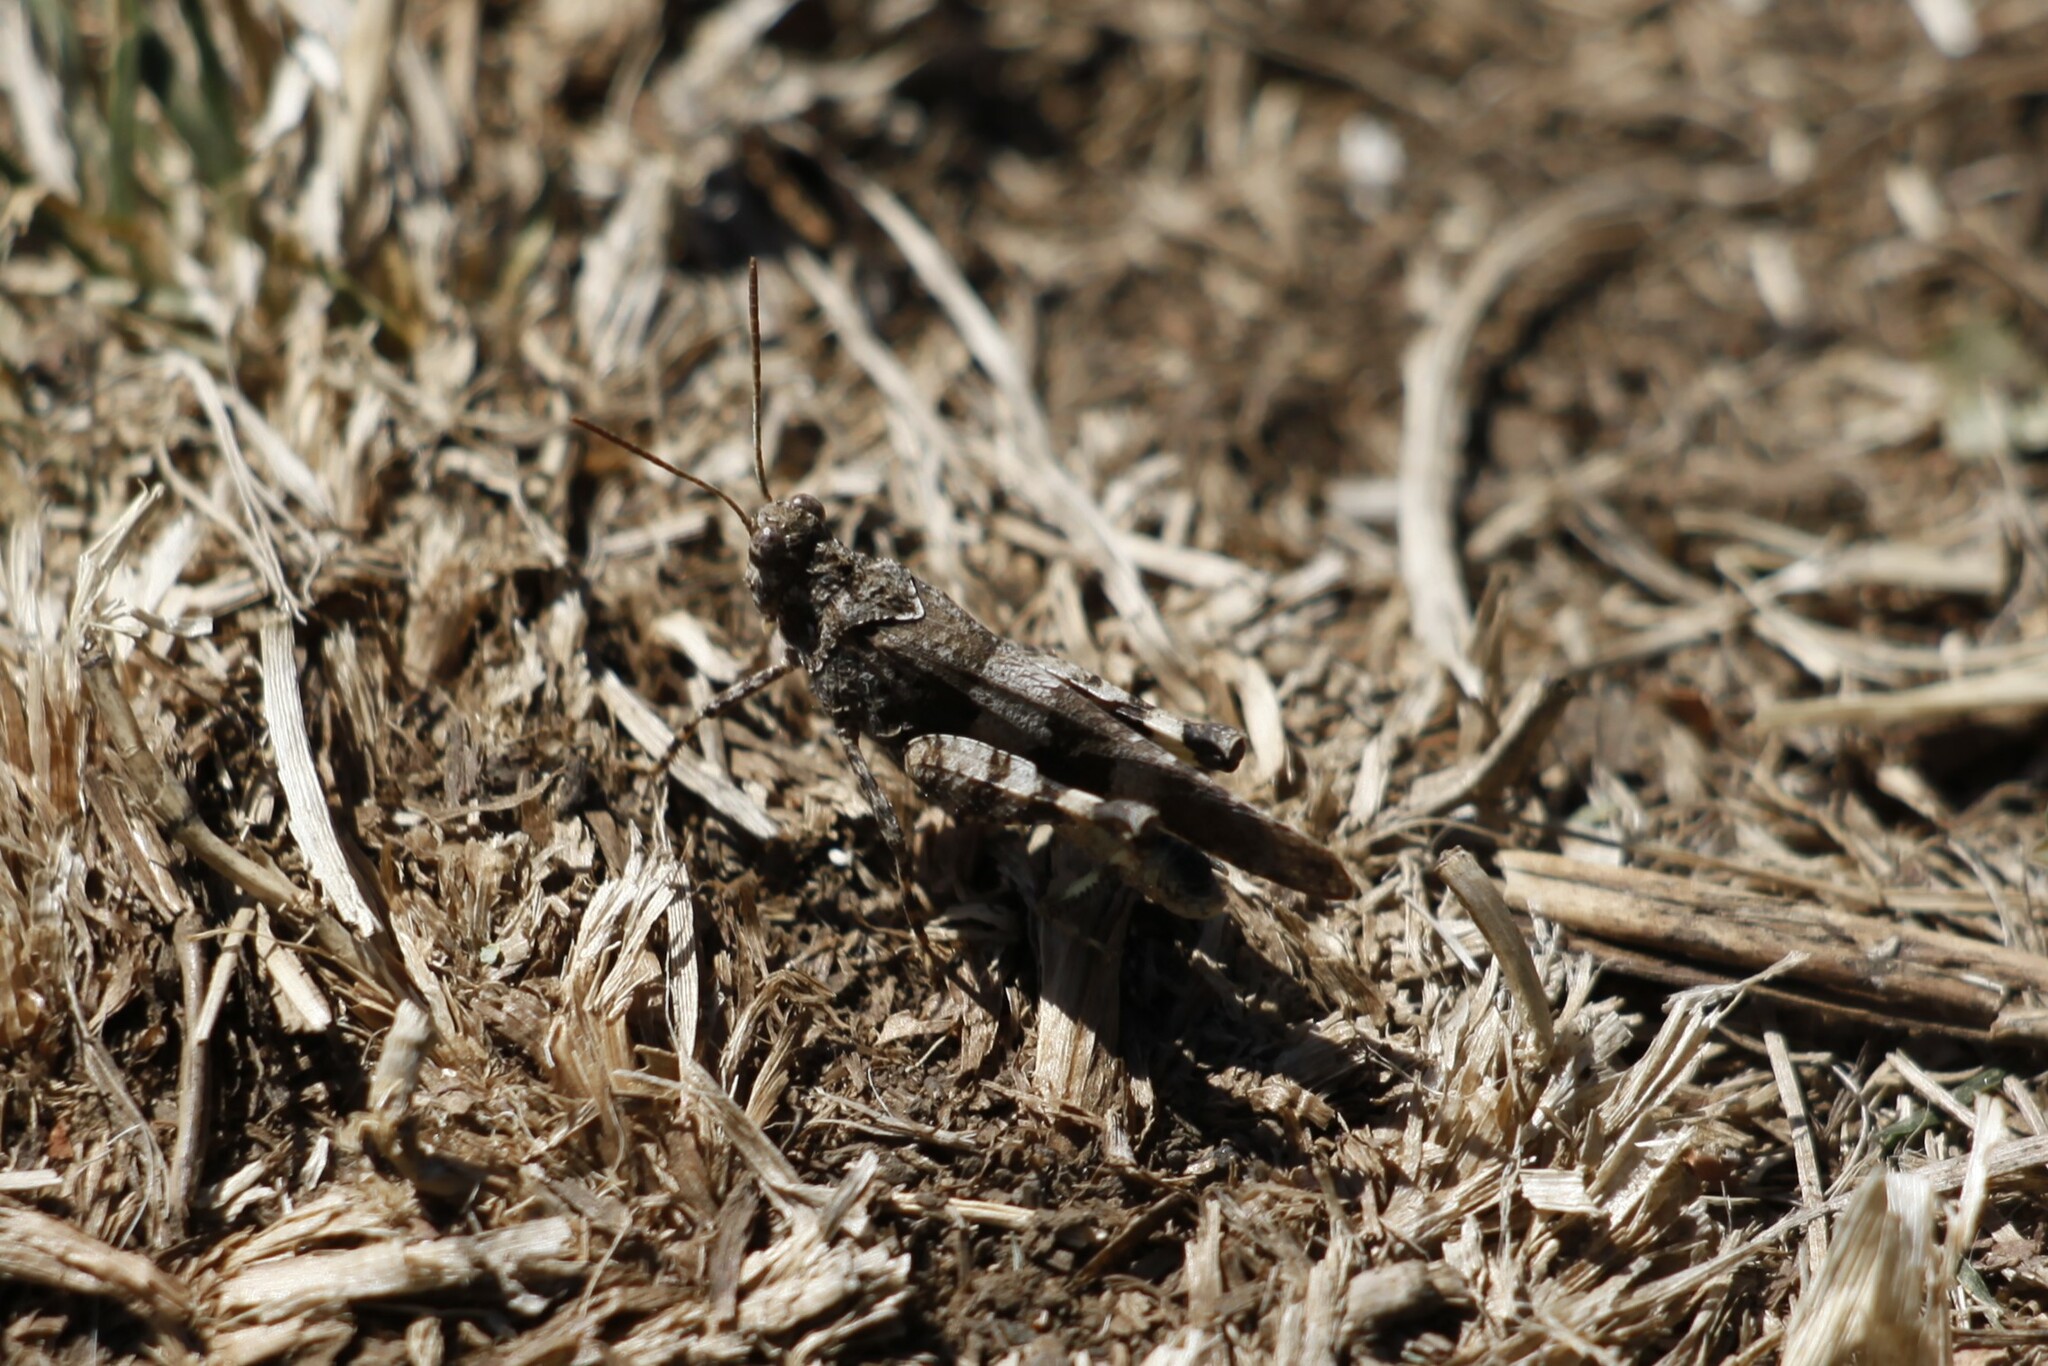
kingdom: Animalia
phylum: Arthropoda
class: Insecta
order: Orthoptera
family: Acrididae
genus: Oedipoda
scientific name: Oedipoda caerulescens
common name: Blue-winged grasshopper
